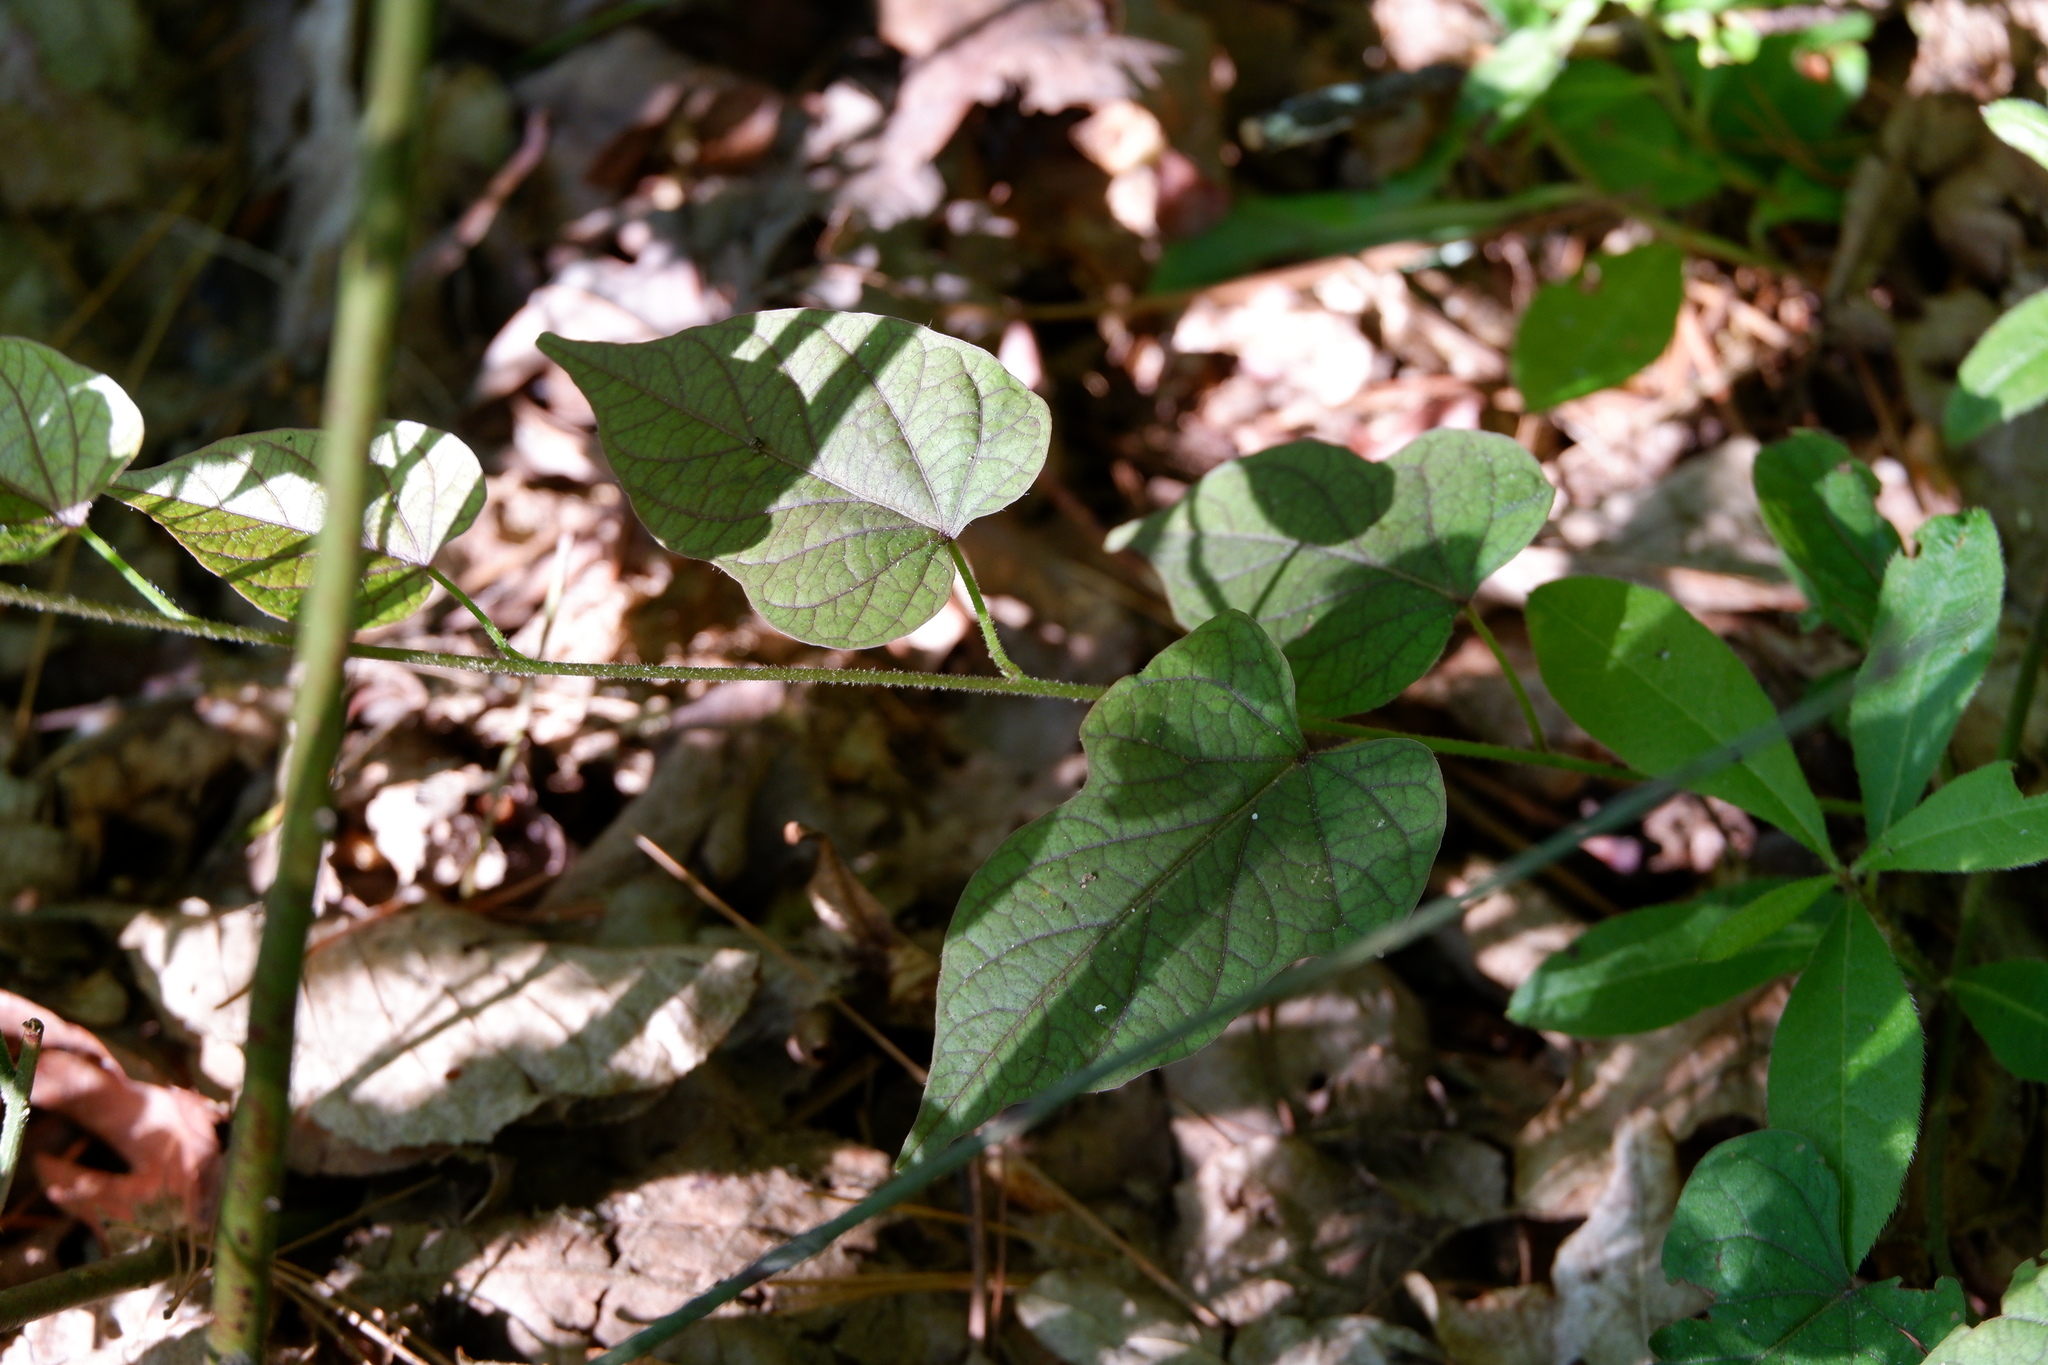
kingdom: Plantae
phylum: Tracheophyta
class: Magnoliopsida
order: Solanales
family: Convolvulaceae
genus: Ipomoea
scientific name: Ipomoea pandurata
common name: Man-of-the-earth
